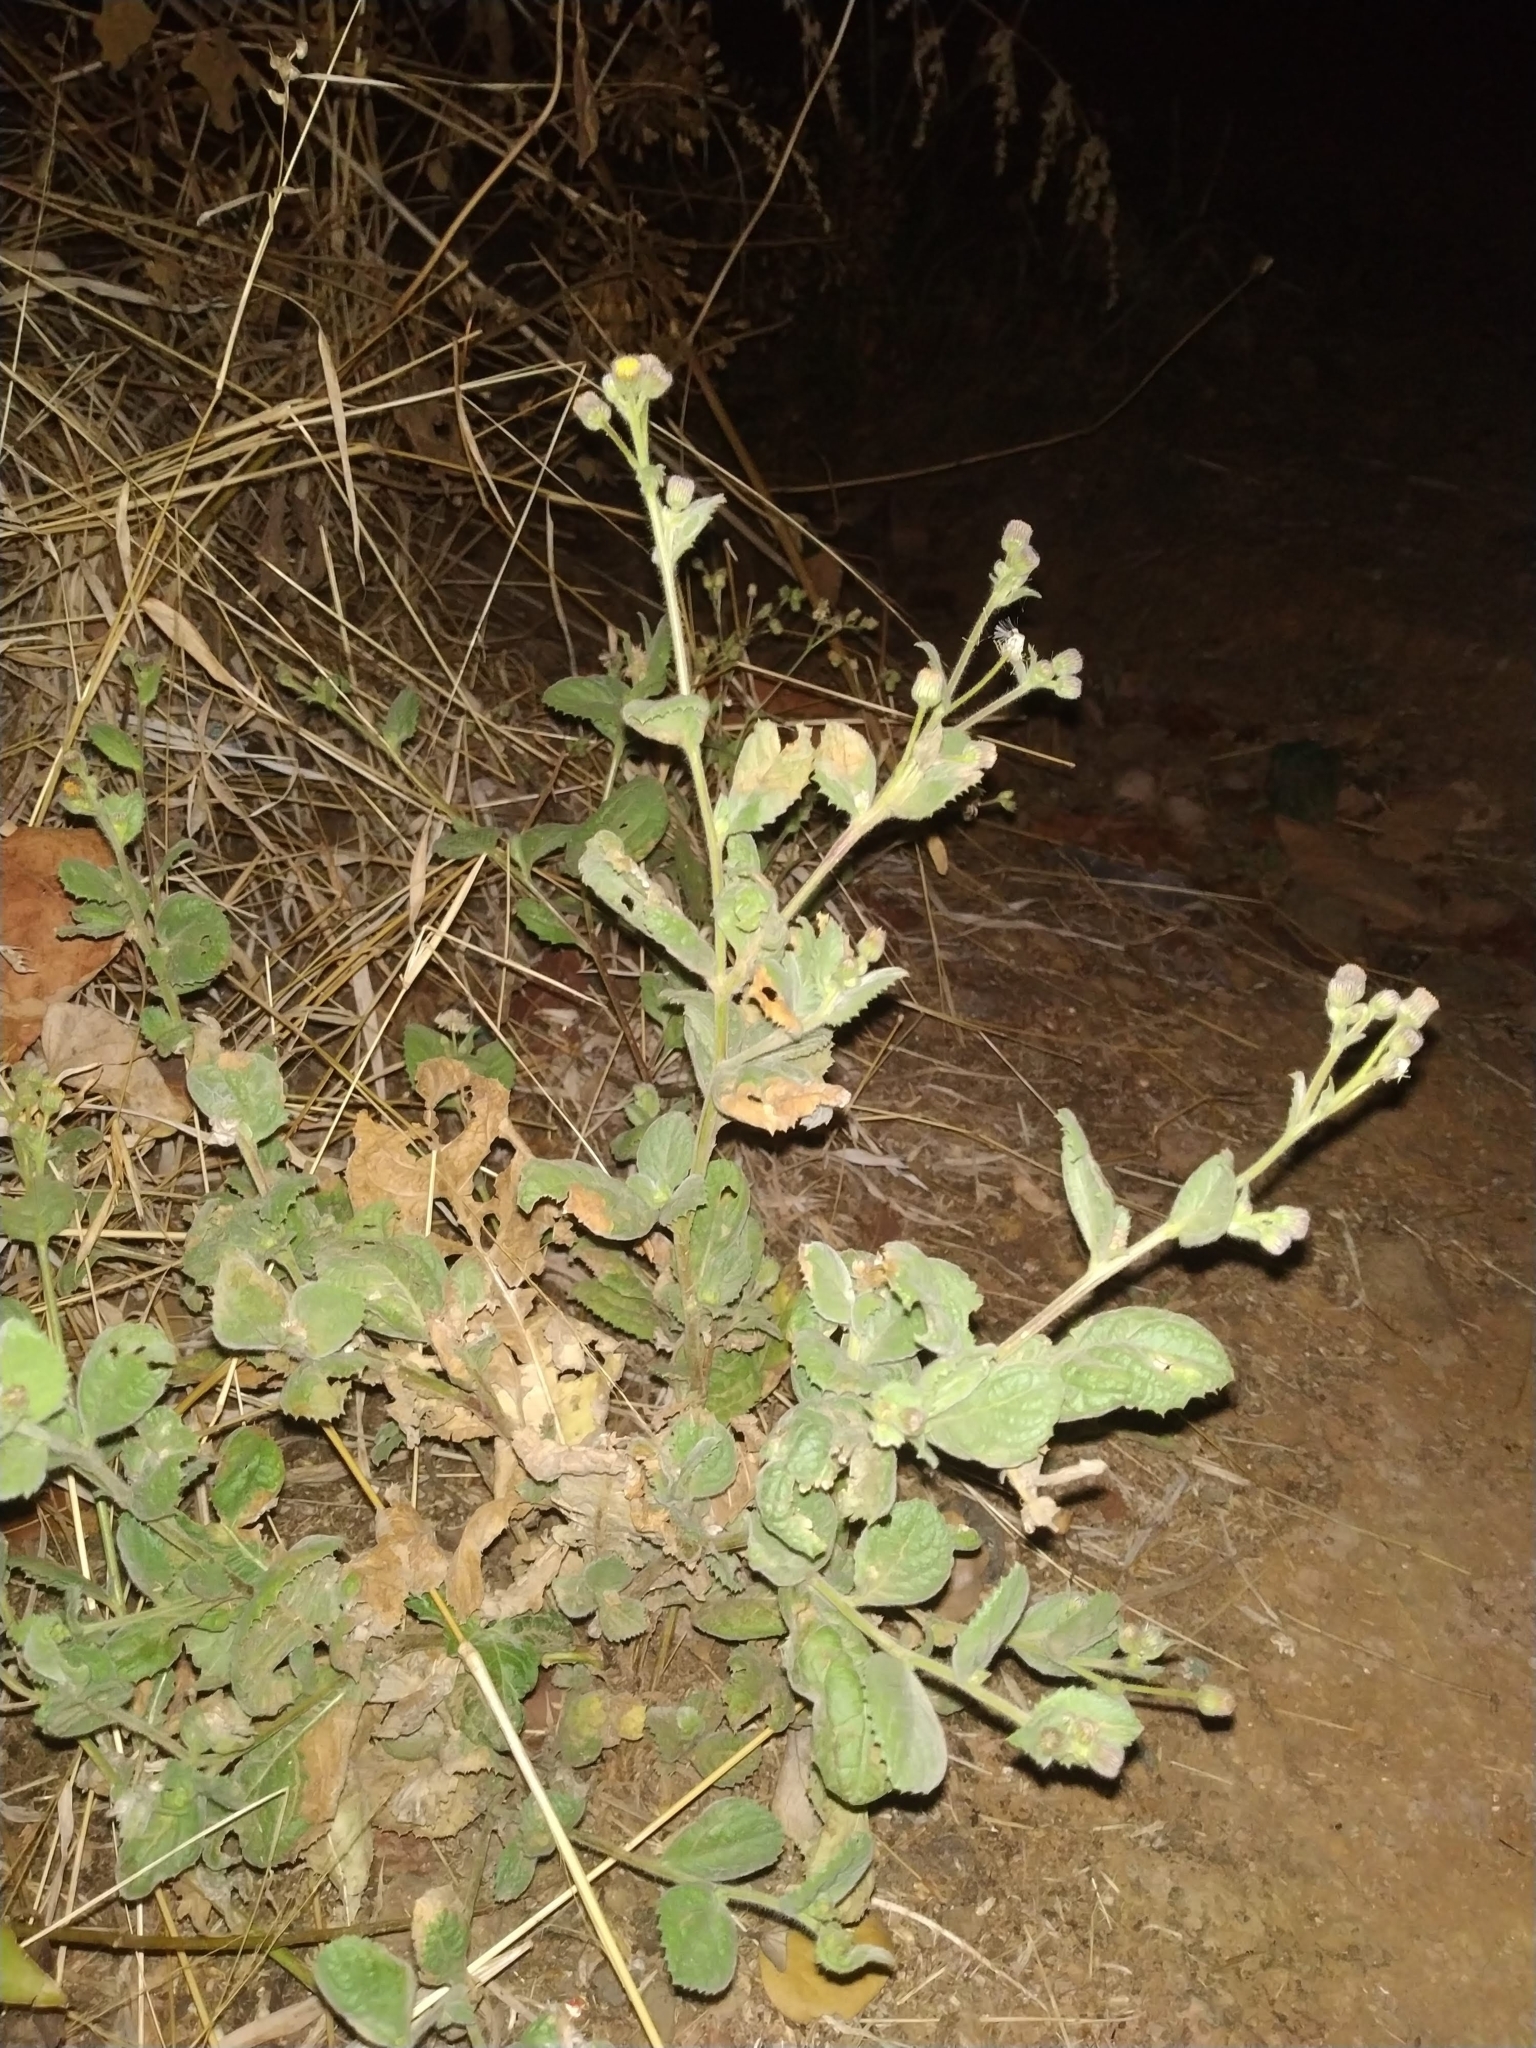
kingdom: Plantae
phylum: Tracheophyta
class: Magnoliopsida
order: Asterales
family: Asteraceae
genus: Blumea
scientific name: Blumea oxyodonta
